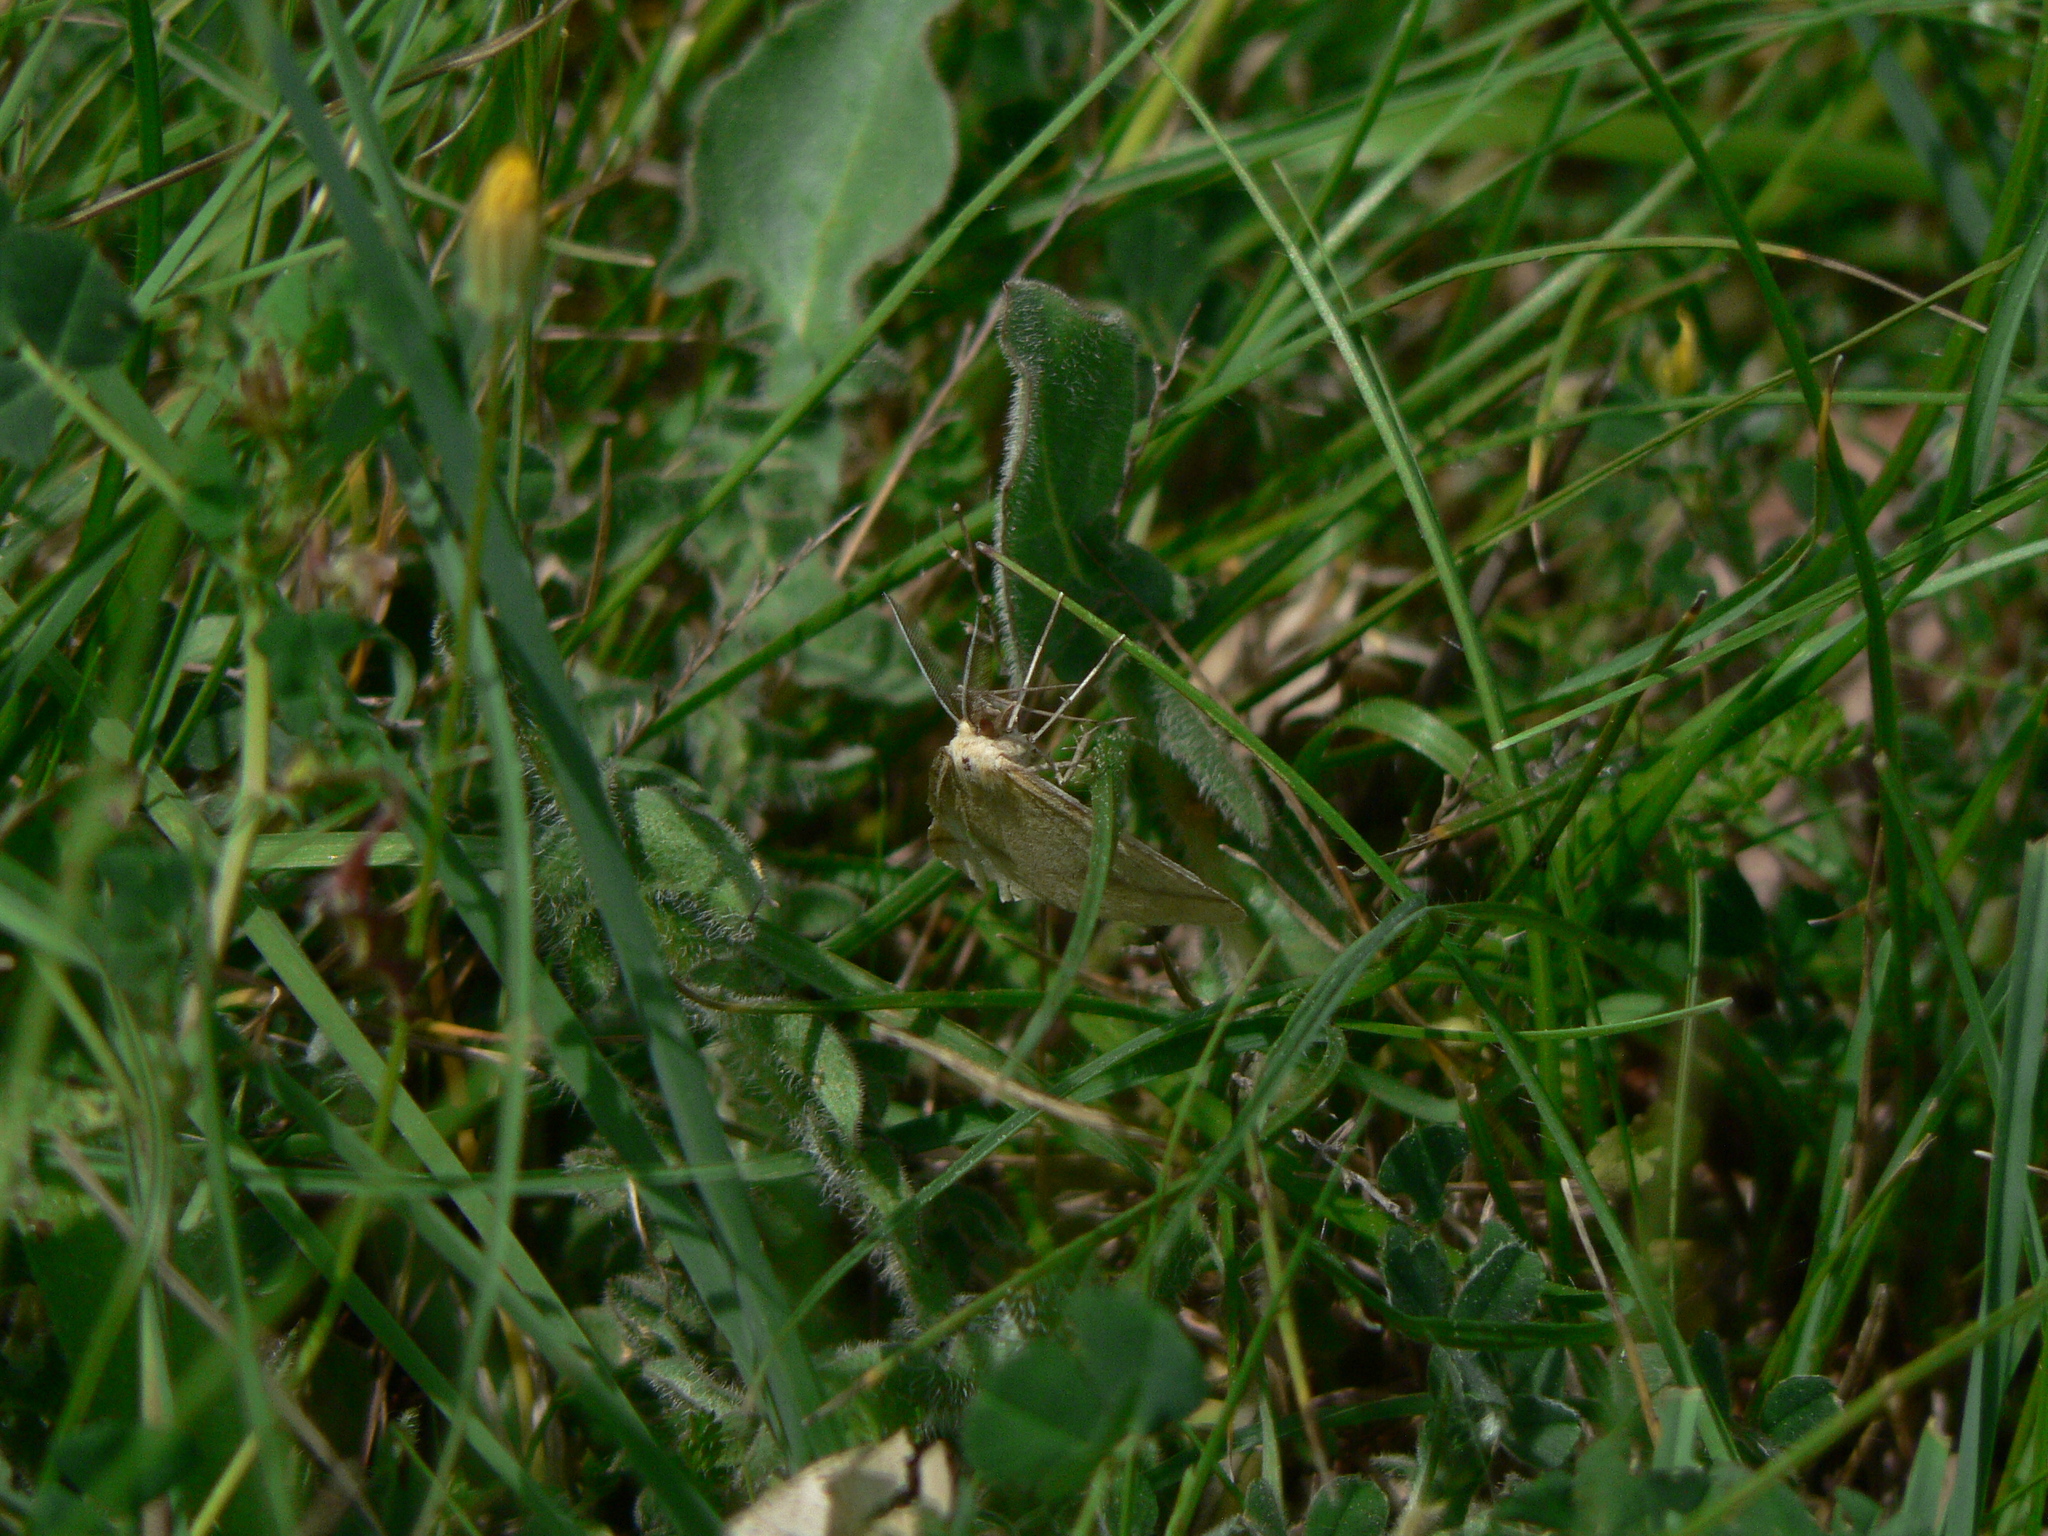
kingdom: Animalia
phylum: Arthropoda
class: Insecta
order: Lepidoptera
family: Geometridae
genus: Aspitates
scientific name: Aspitates gilvaria
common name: Straw belle
